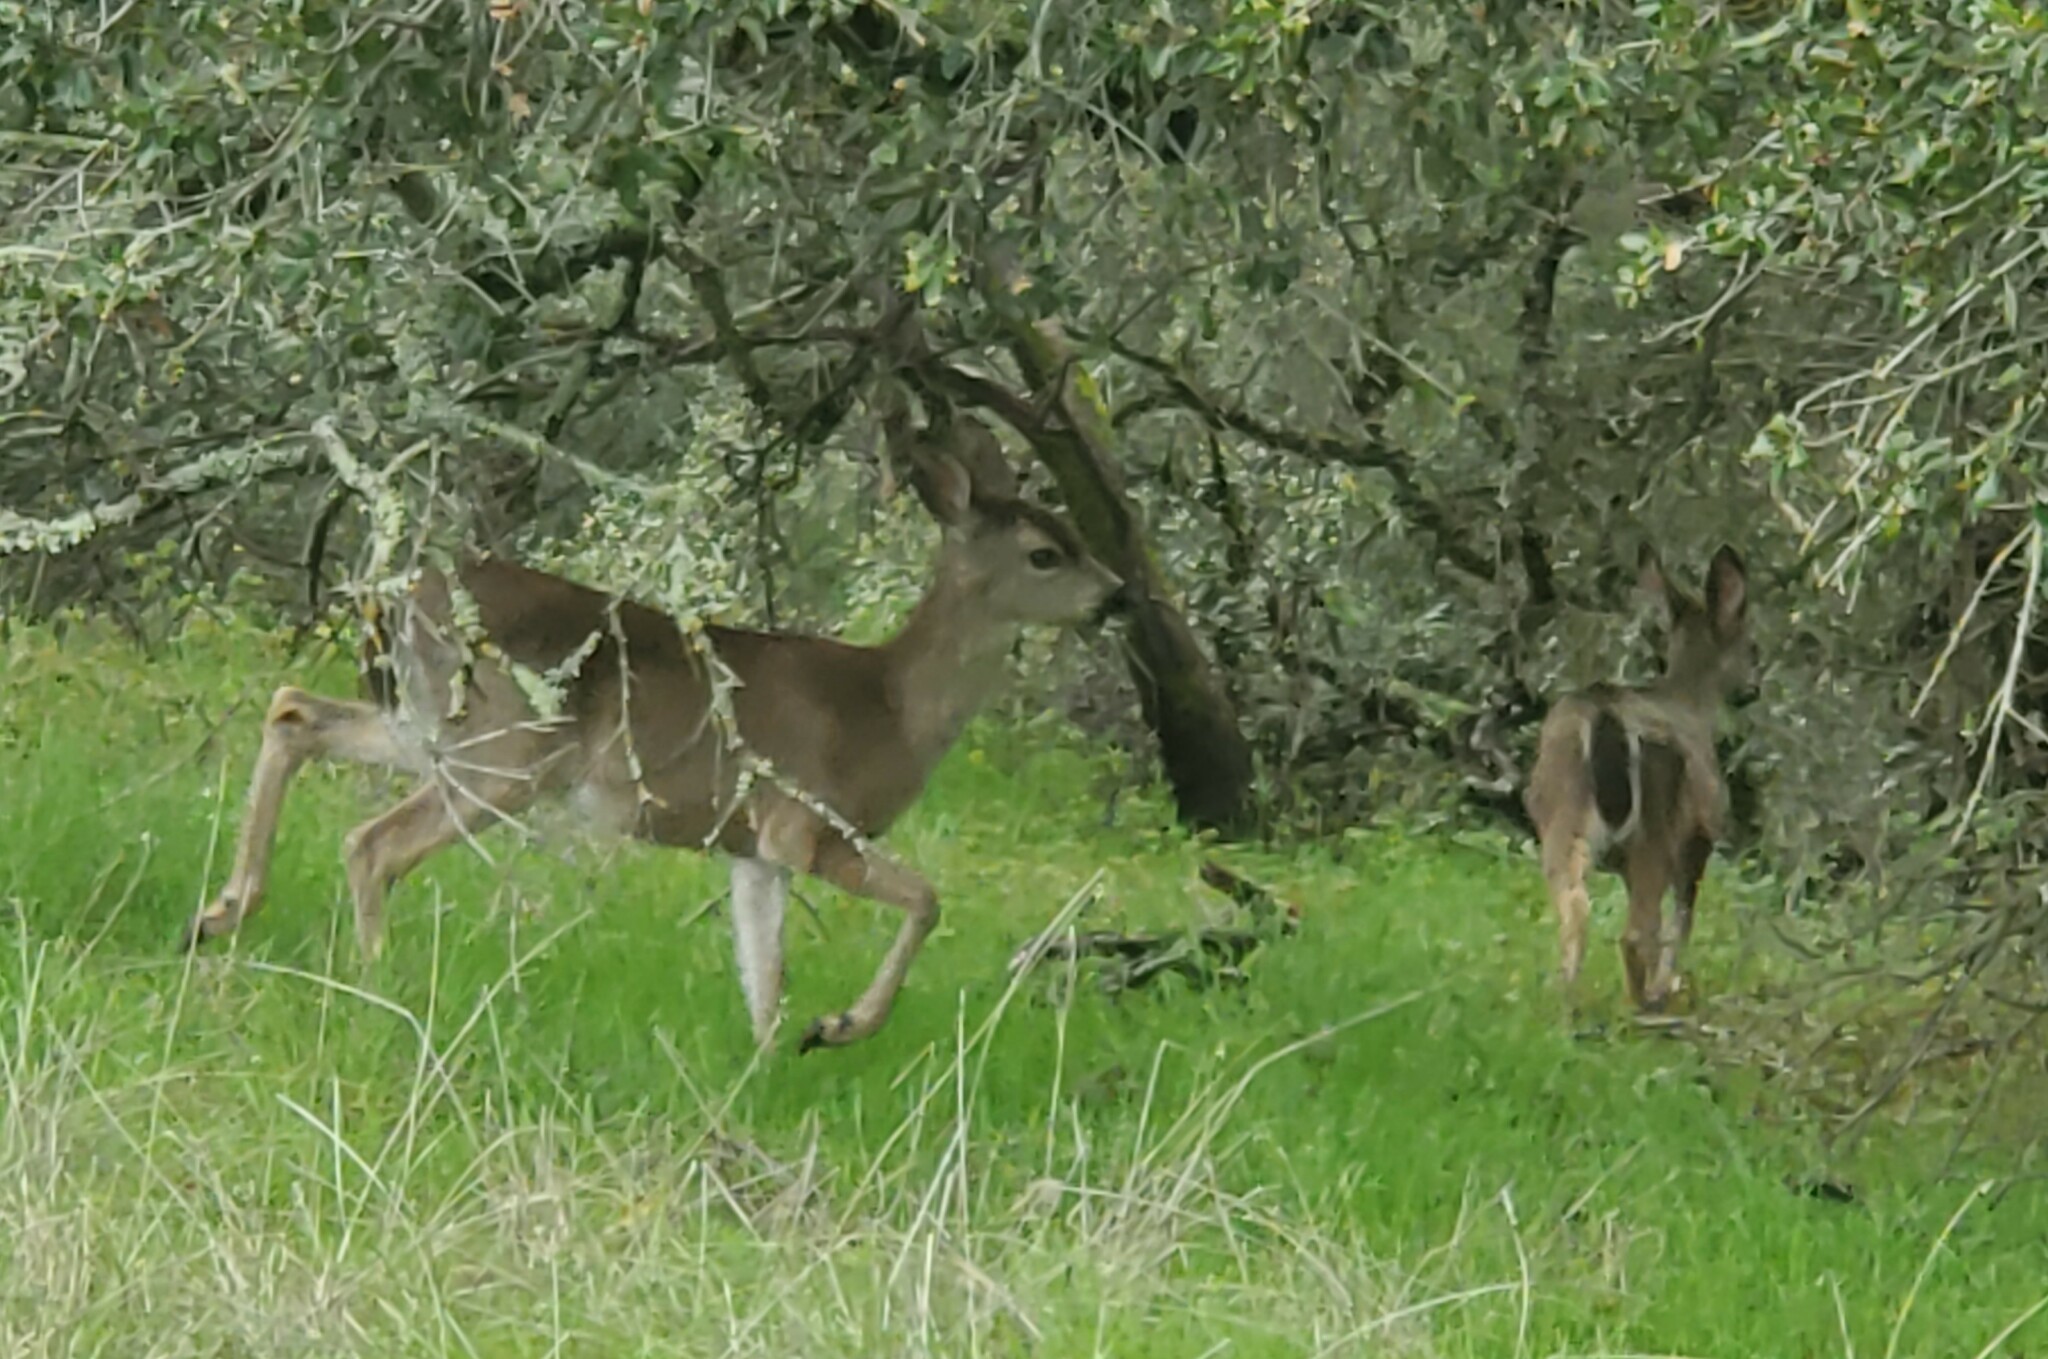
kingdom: Animalia
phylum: Chordata
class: Mammalia
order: Artiodactyla
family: Cervidae
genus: Odocoileus
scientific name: Odocoileus hemionus
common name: Mule deer
